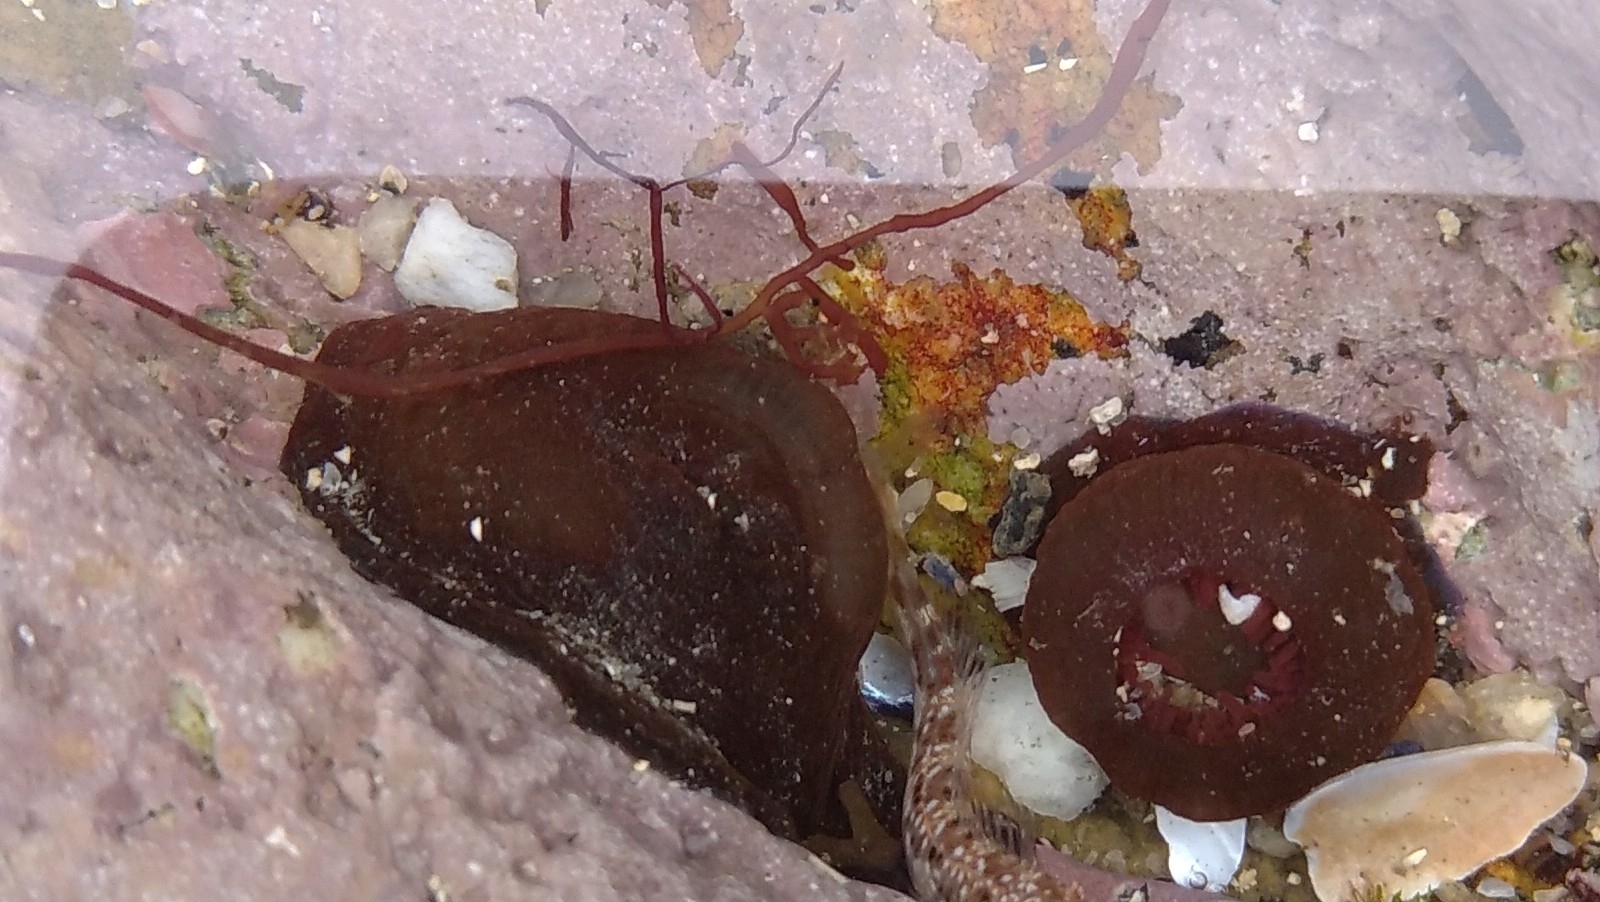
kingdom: Animalia
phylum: Cnidaria
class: Anthozoa
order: Actiniaria
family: Actiniidae
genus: Actinia
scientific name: Actinia equina
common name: Beadlet anemone
